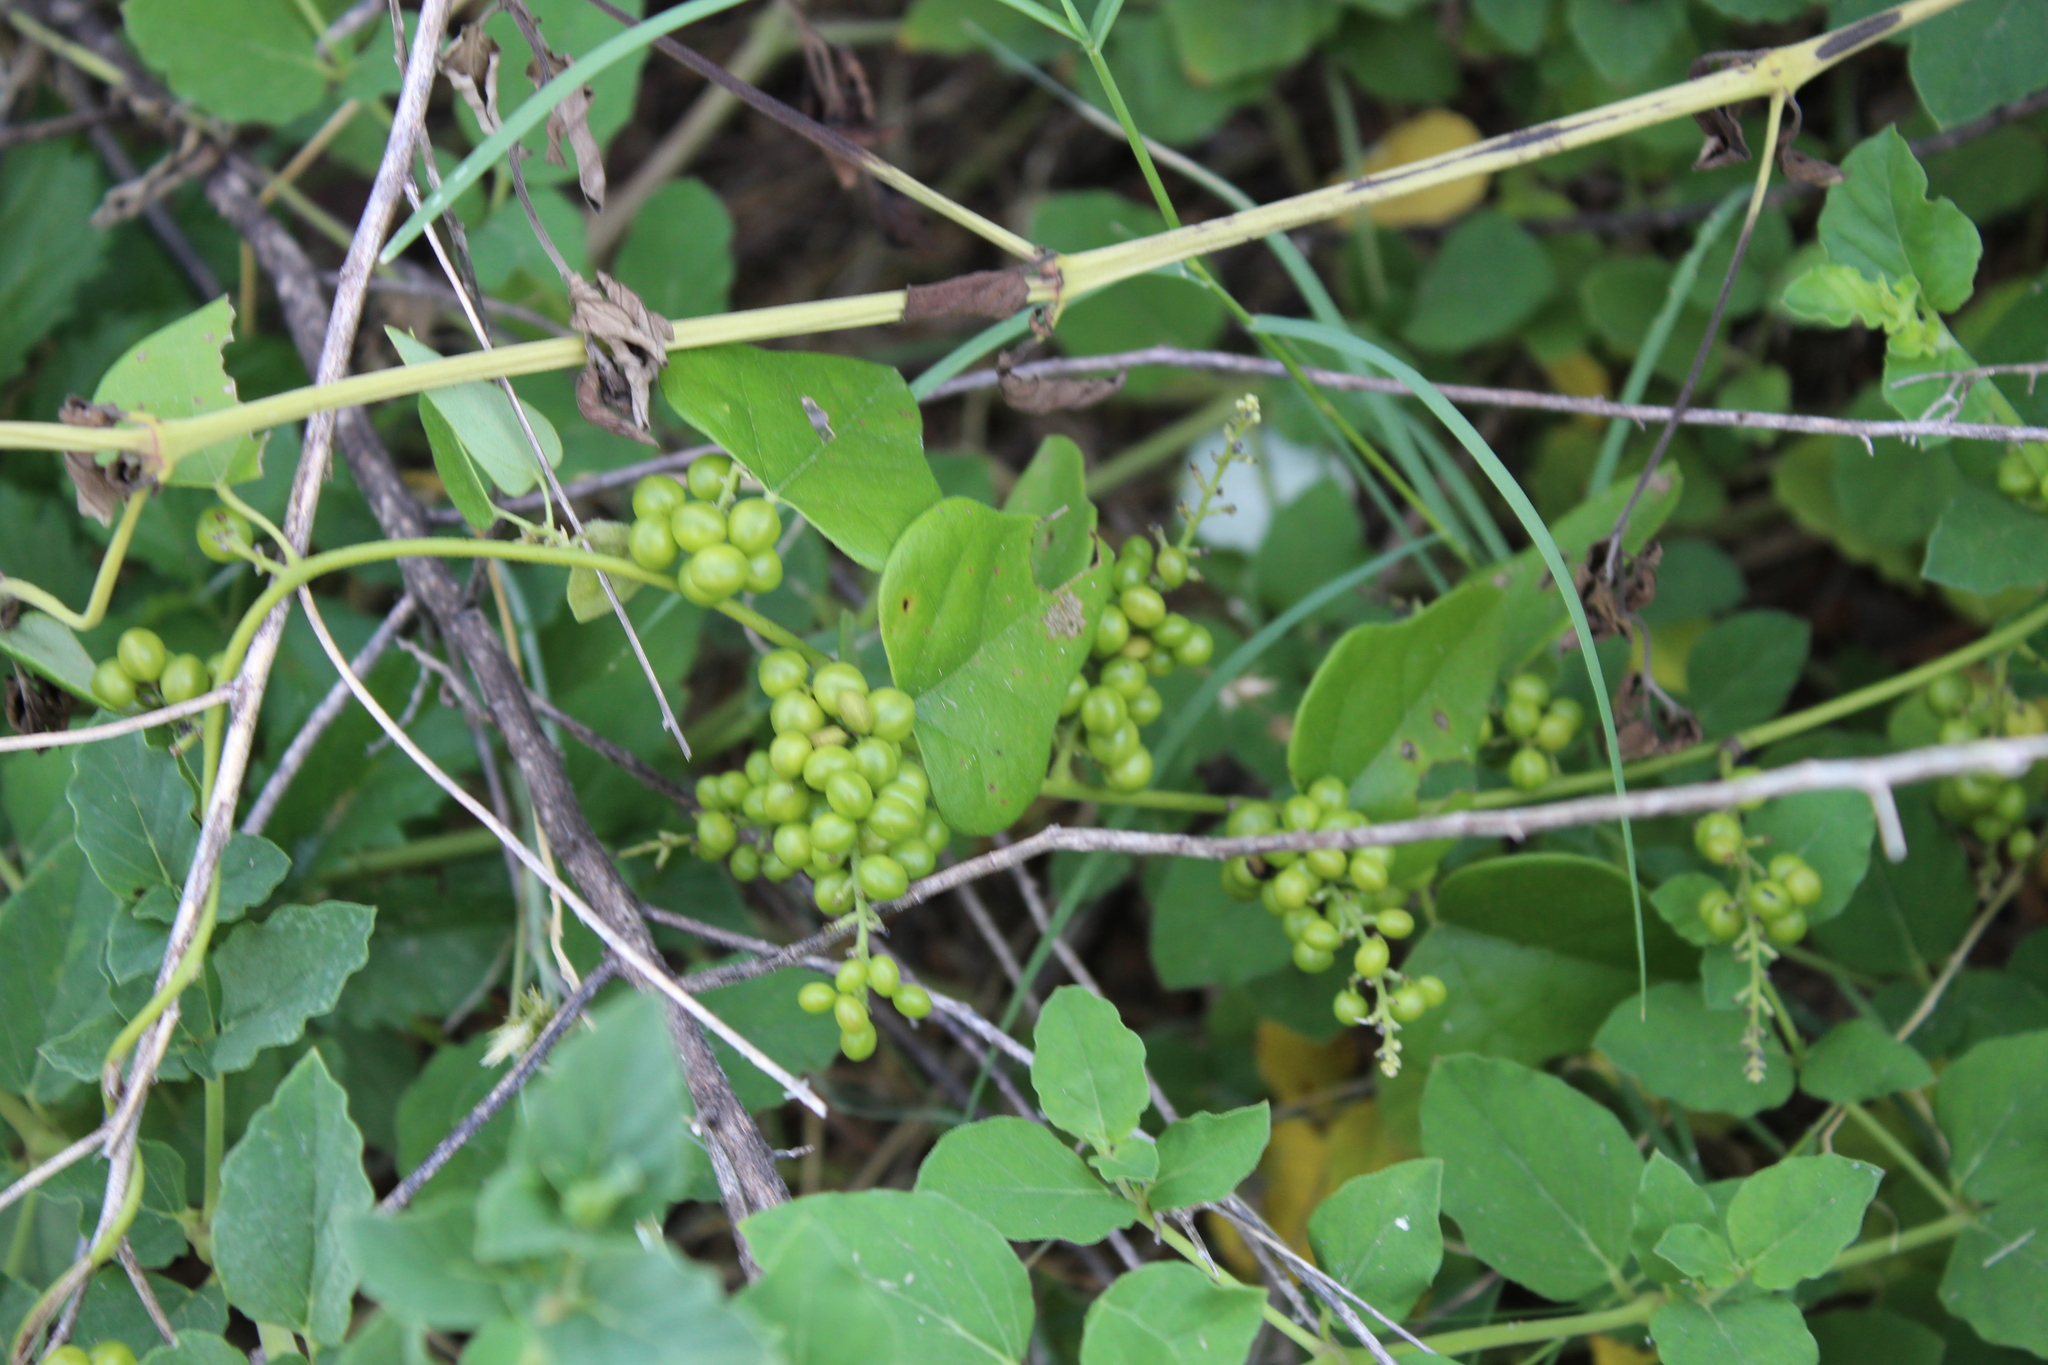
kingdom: Plantae
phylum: Tracheophyta
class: Magnoliopsida
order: Ranunculales
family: Menispermaceae
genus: Cocculus
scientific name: Cocculus carolinus
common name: Carolina moonseed
